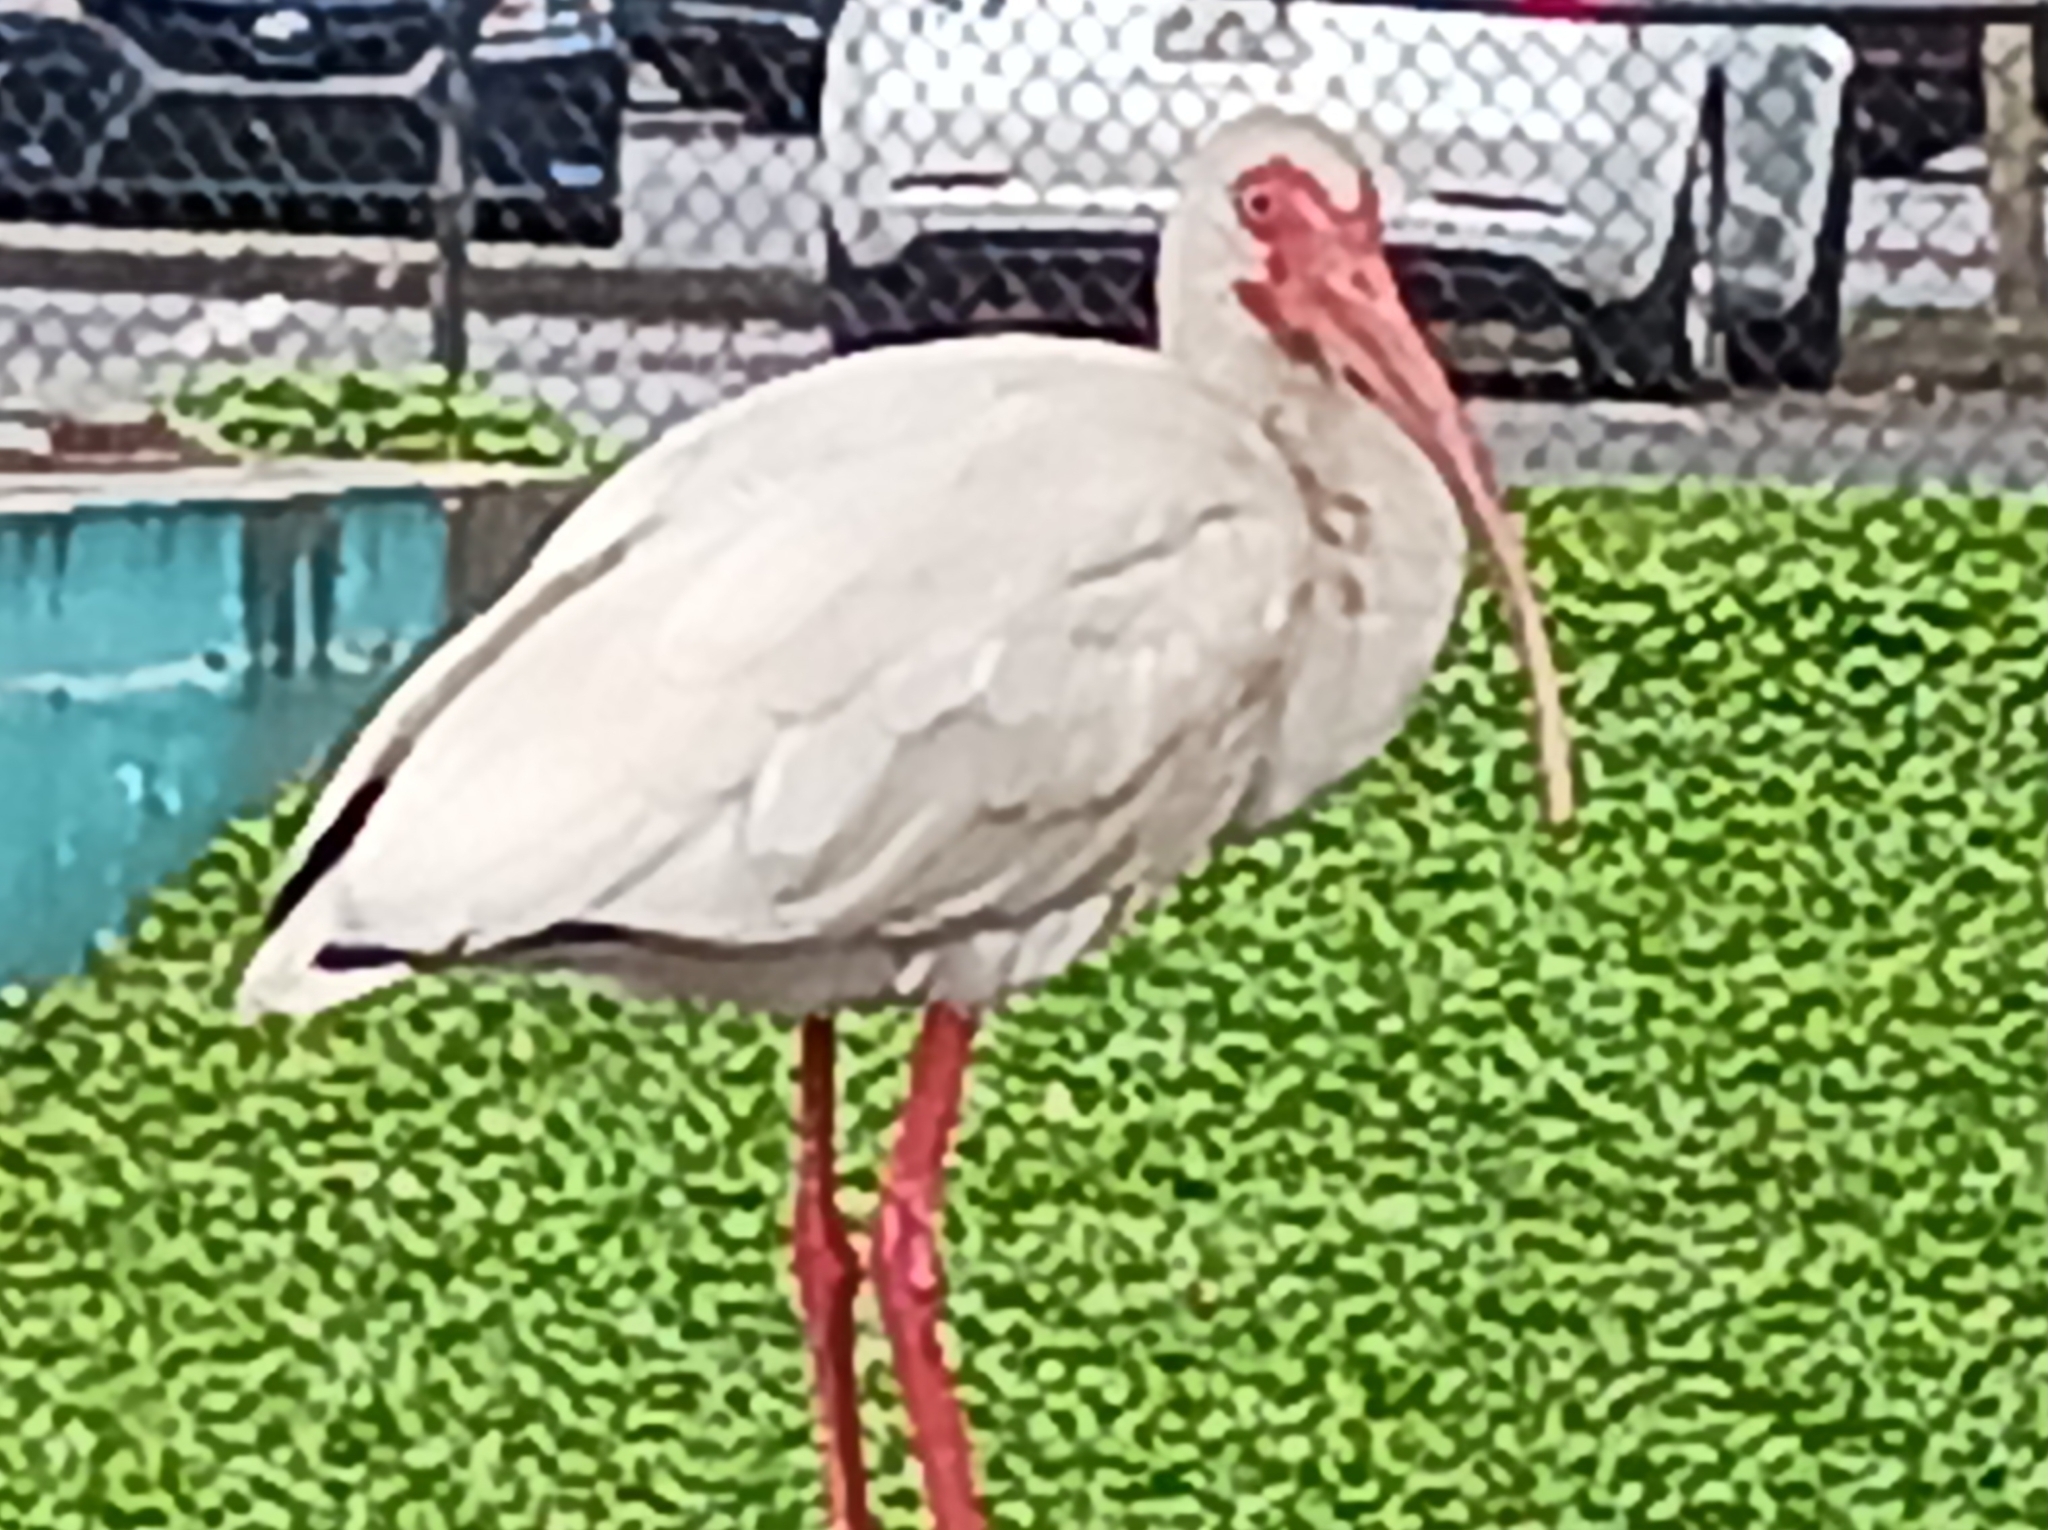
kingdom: Animalia
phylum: Chordata
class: Aves
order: Pelecaniformes
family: Threskiornithidae
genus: Eudocimus
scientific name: Eudocimus albus
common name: White ibis
